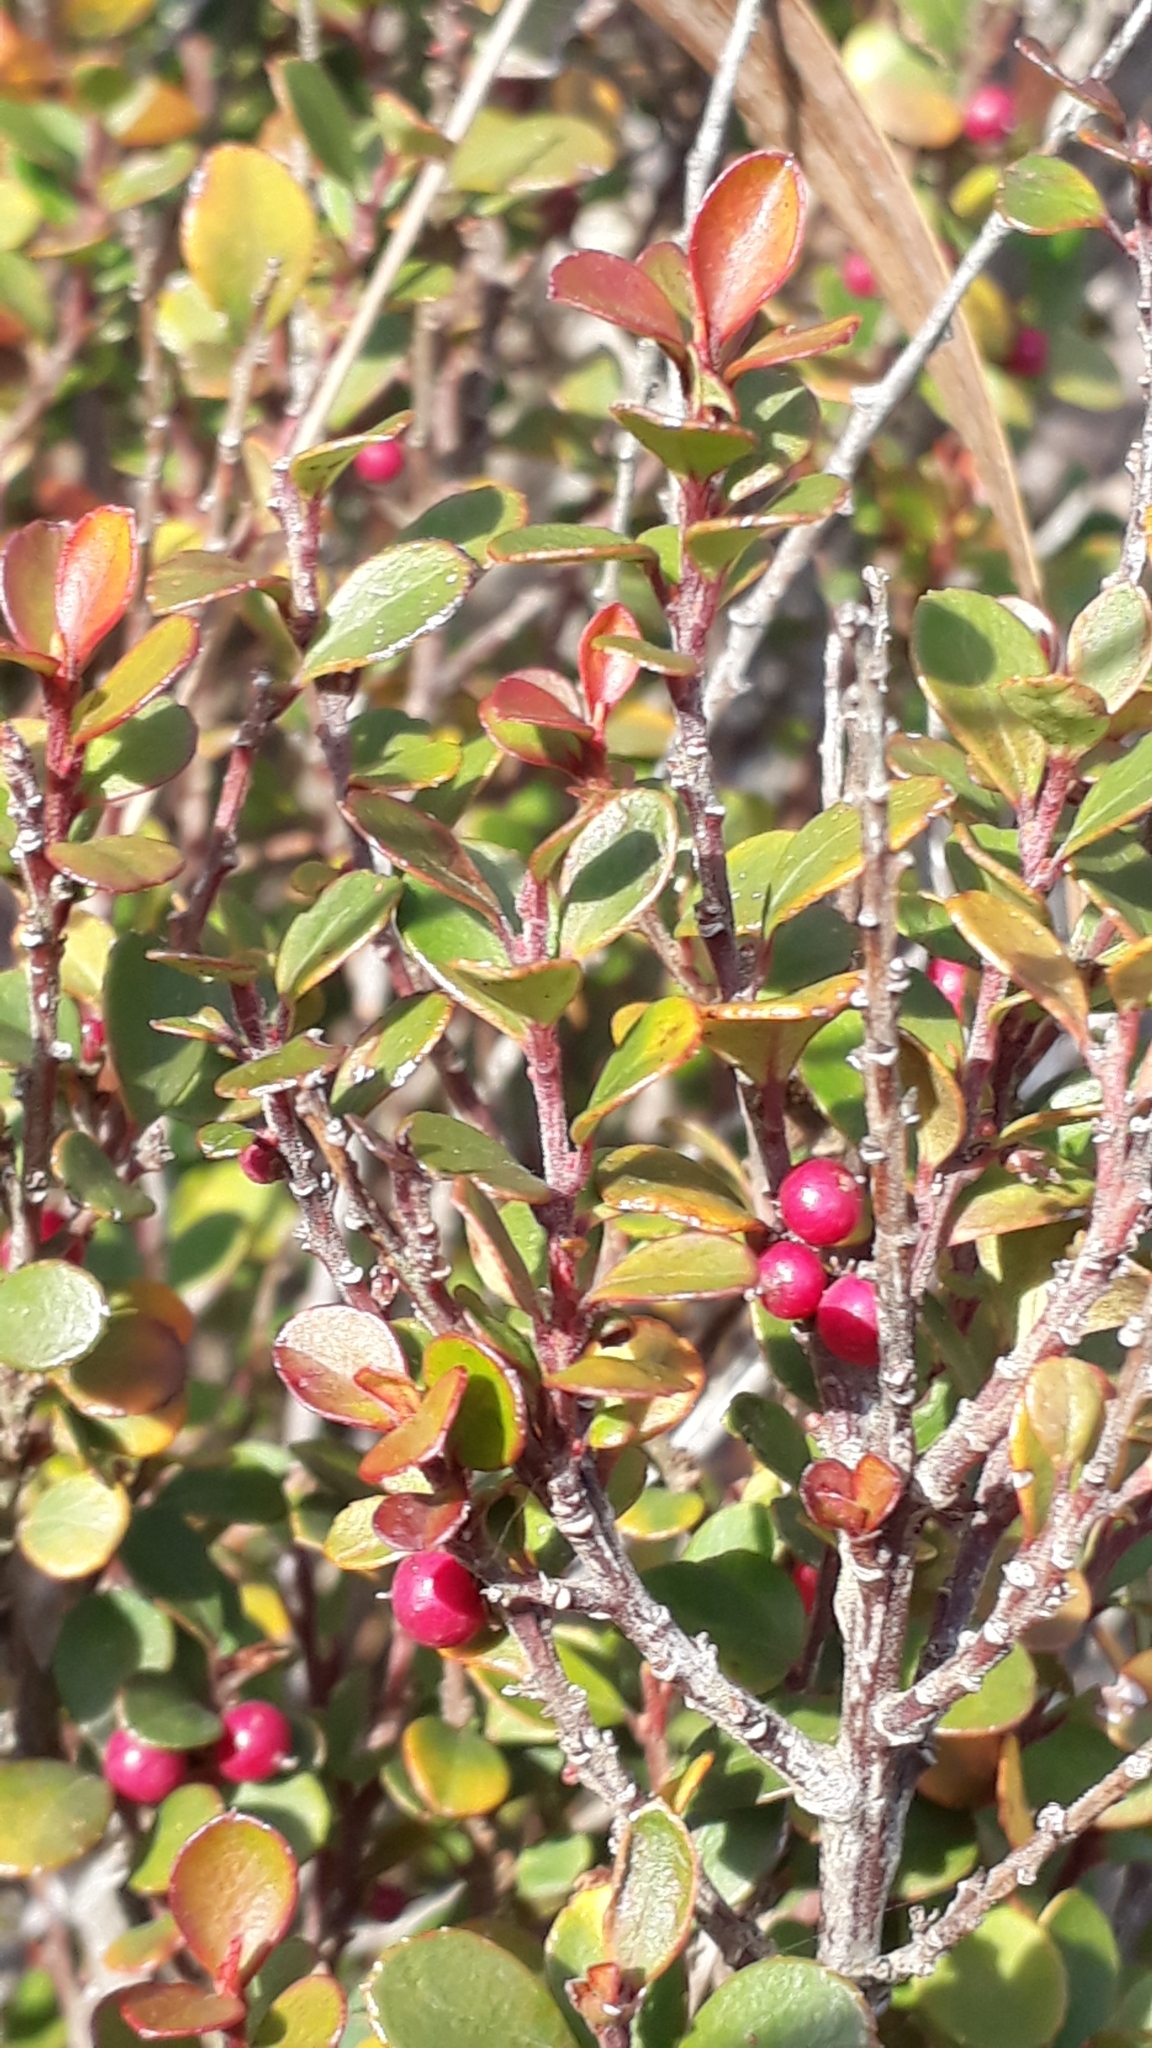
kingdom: Plantae
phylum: Tracheophyta
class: Magnoliopsida
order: Ericales
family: Primulaceae
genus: Myrsine
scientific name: Myrsine africana
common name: African-boxwood
